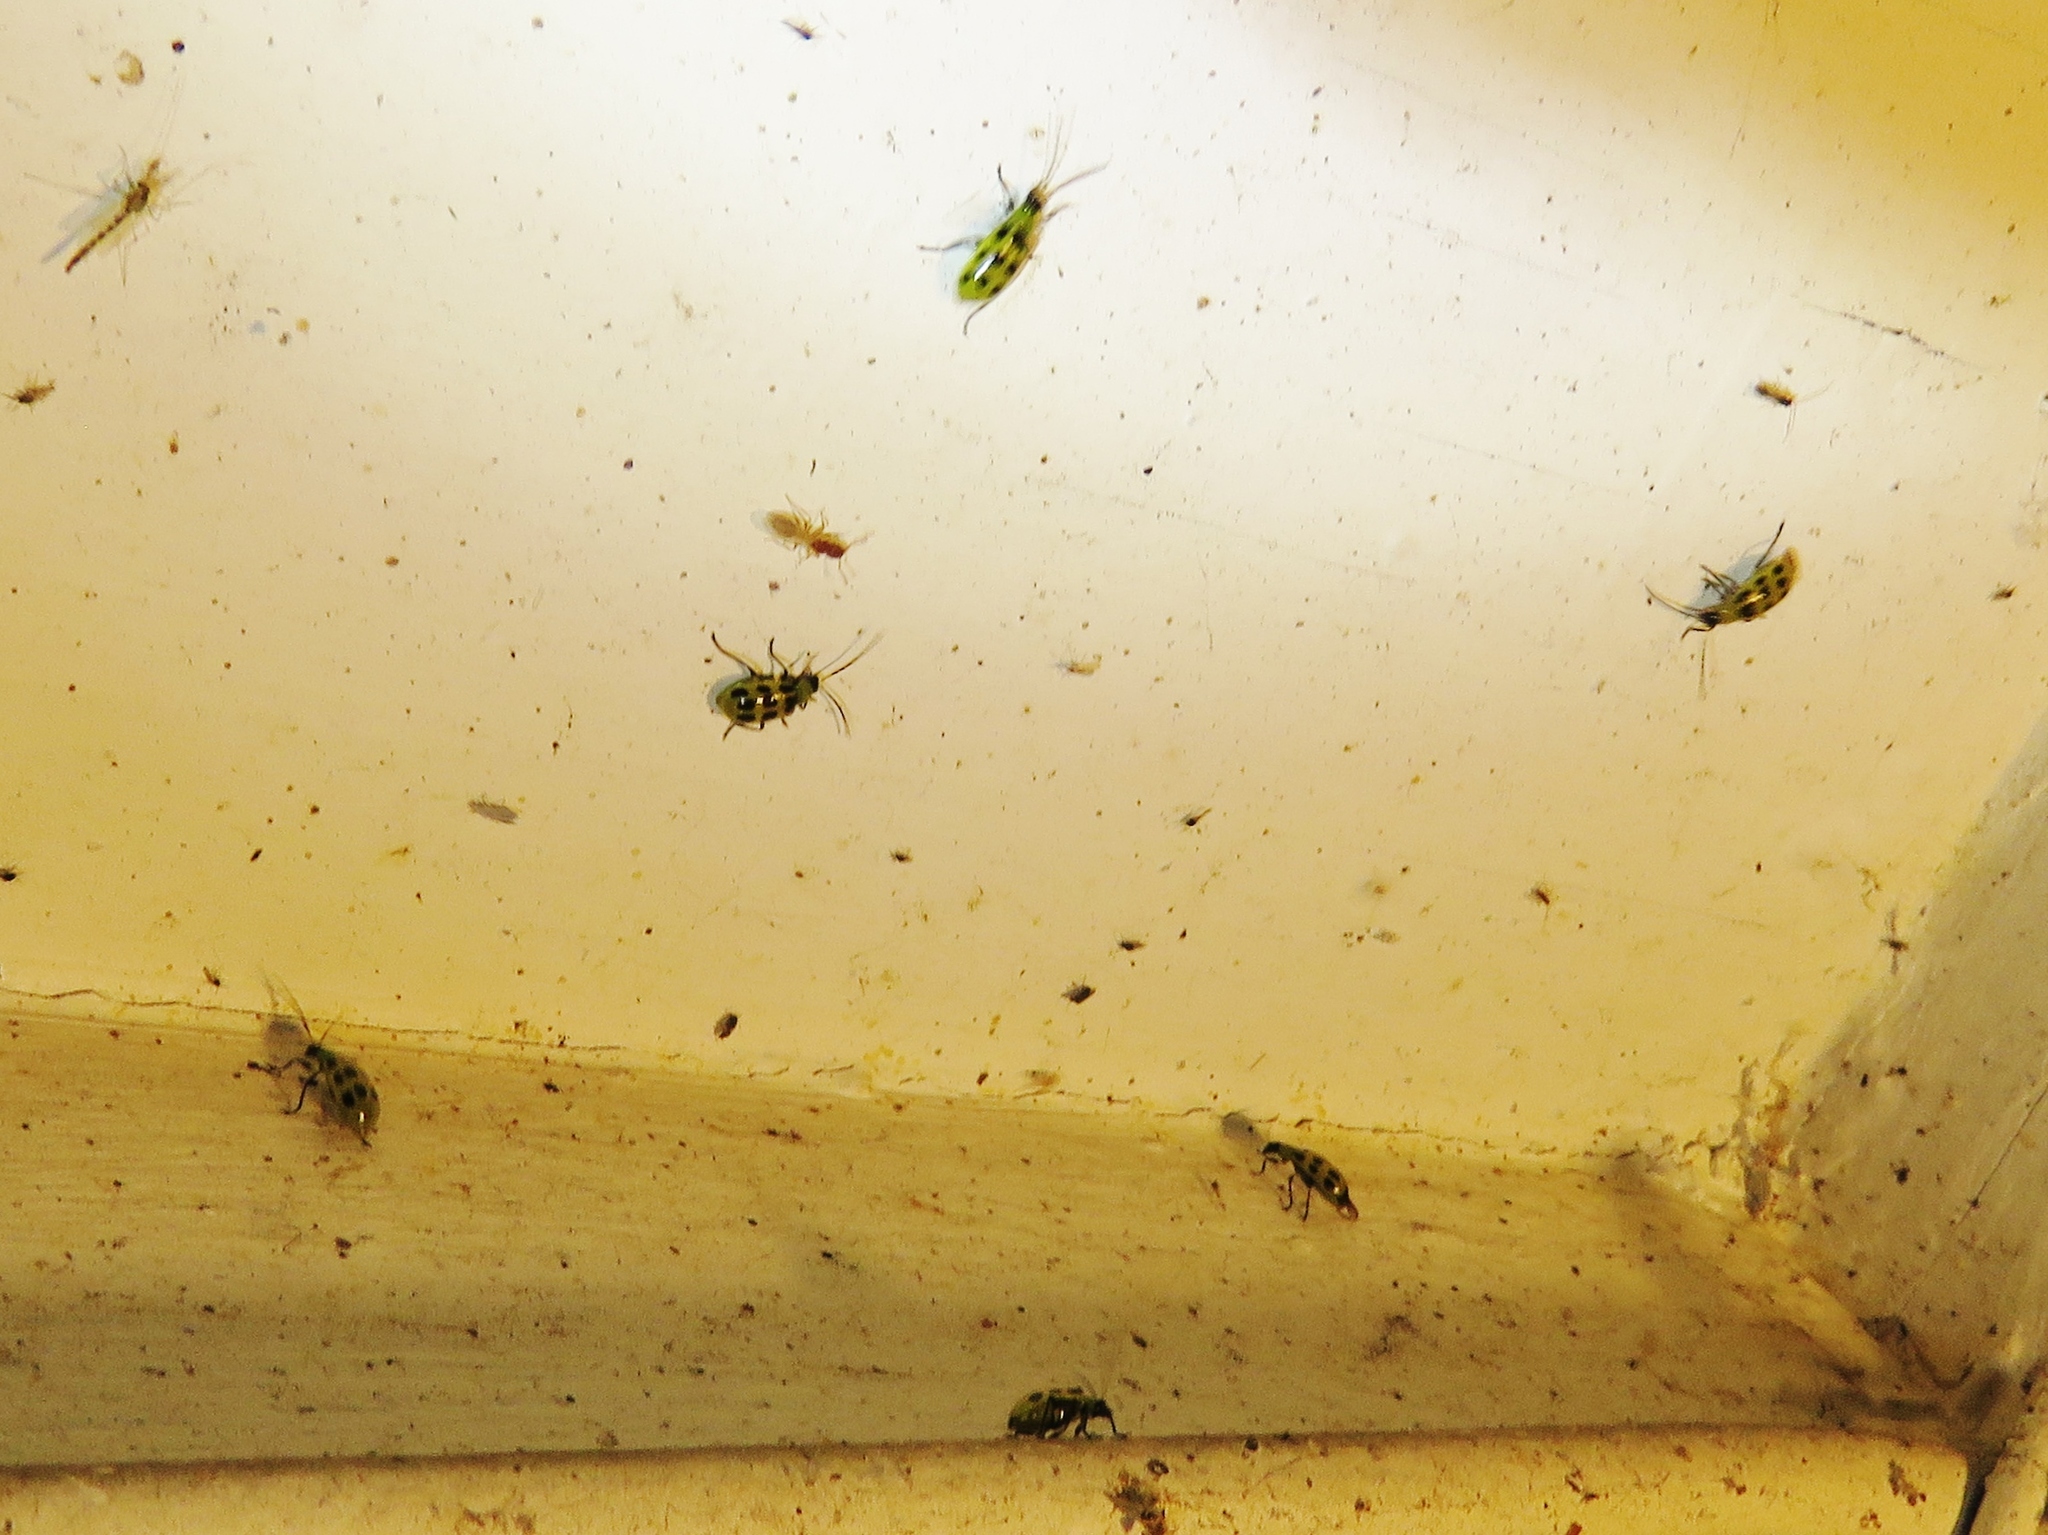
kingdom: Animalia
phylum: Arthropoda
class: Insecta
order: Coleoptera
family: Chrysomelidae
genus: Diabrotica
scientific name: Diabrotica undecimpunctata
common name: Spotted cucumber beetle
